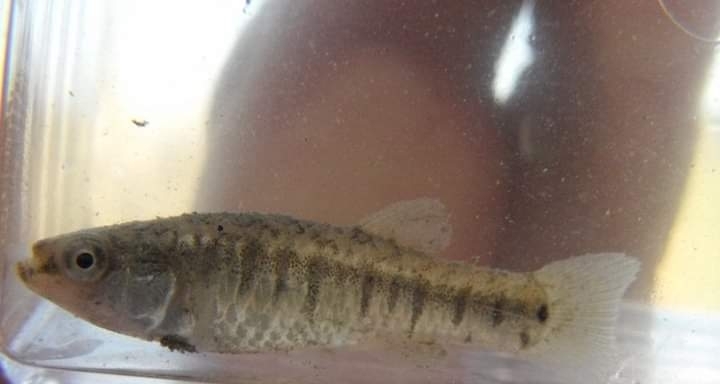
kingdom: Animalia
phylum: Chordata
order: Cyprinodontiformes
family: Cyprinodontidae
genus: Aphanius
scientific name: Aphanius fasciatus
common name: Mediterranean banded killifish
